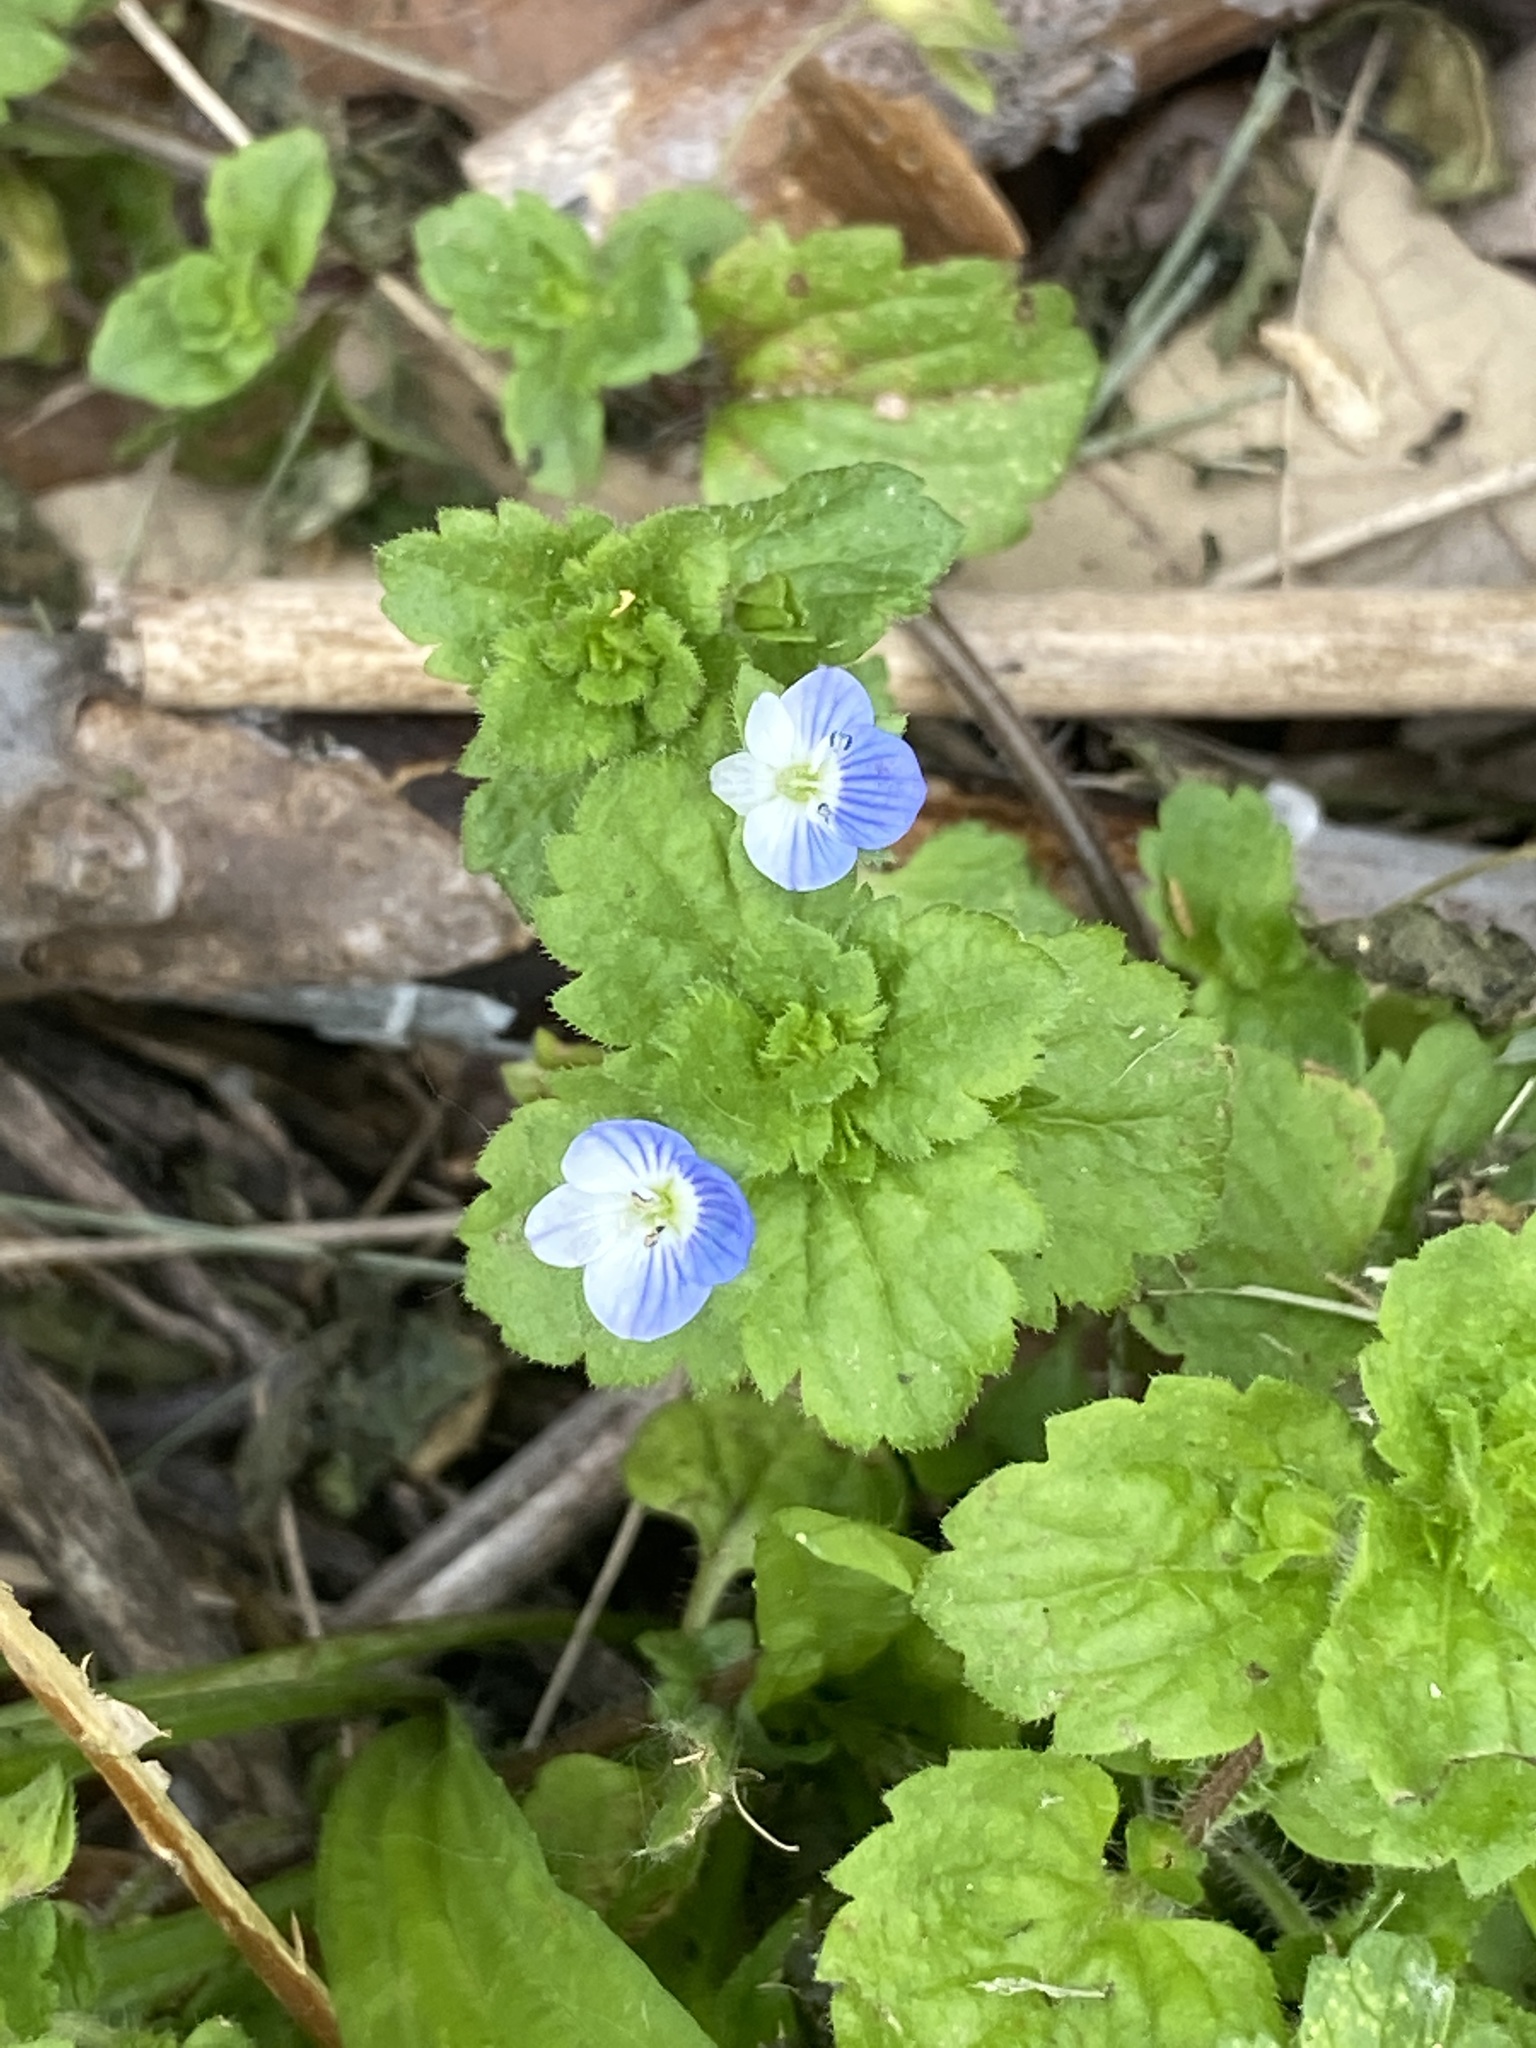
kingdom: Plantae
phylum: Tracheophyta
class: Magnoliopsida
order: Lamiales
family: Plantaginaceae
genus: Veronica
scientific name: Veronica persica
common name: Common field-speedwell
